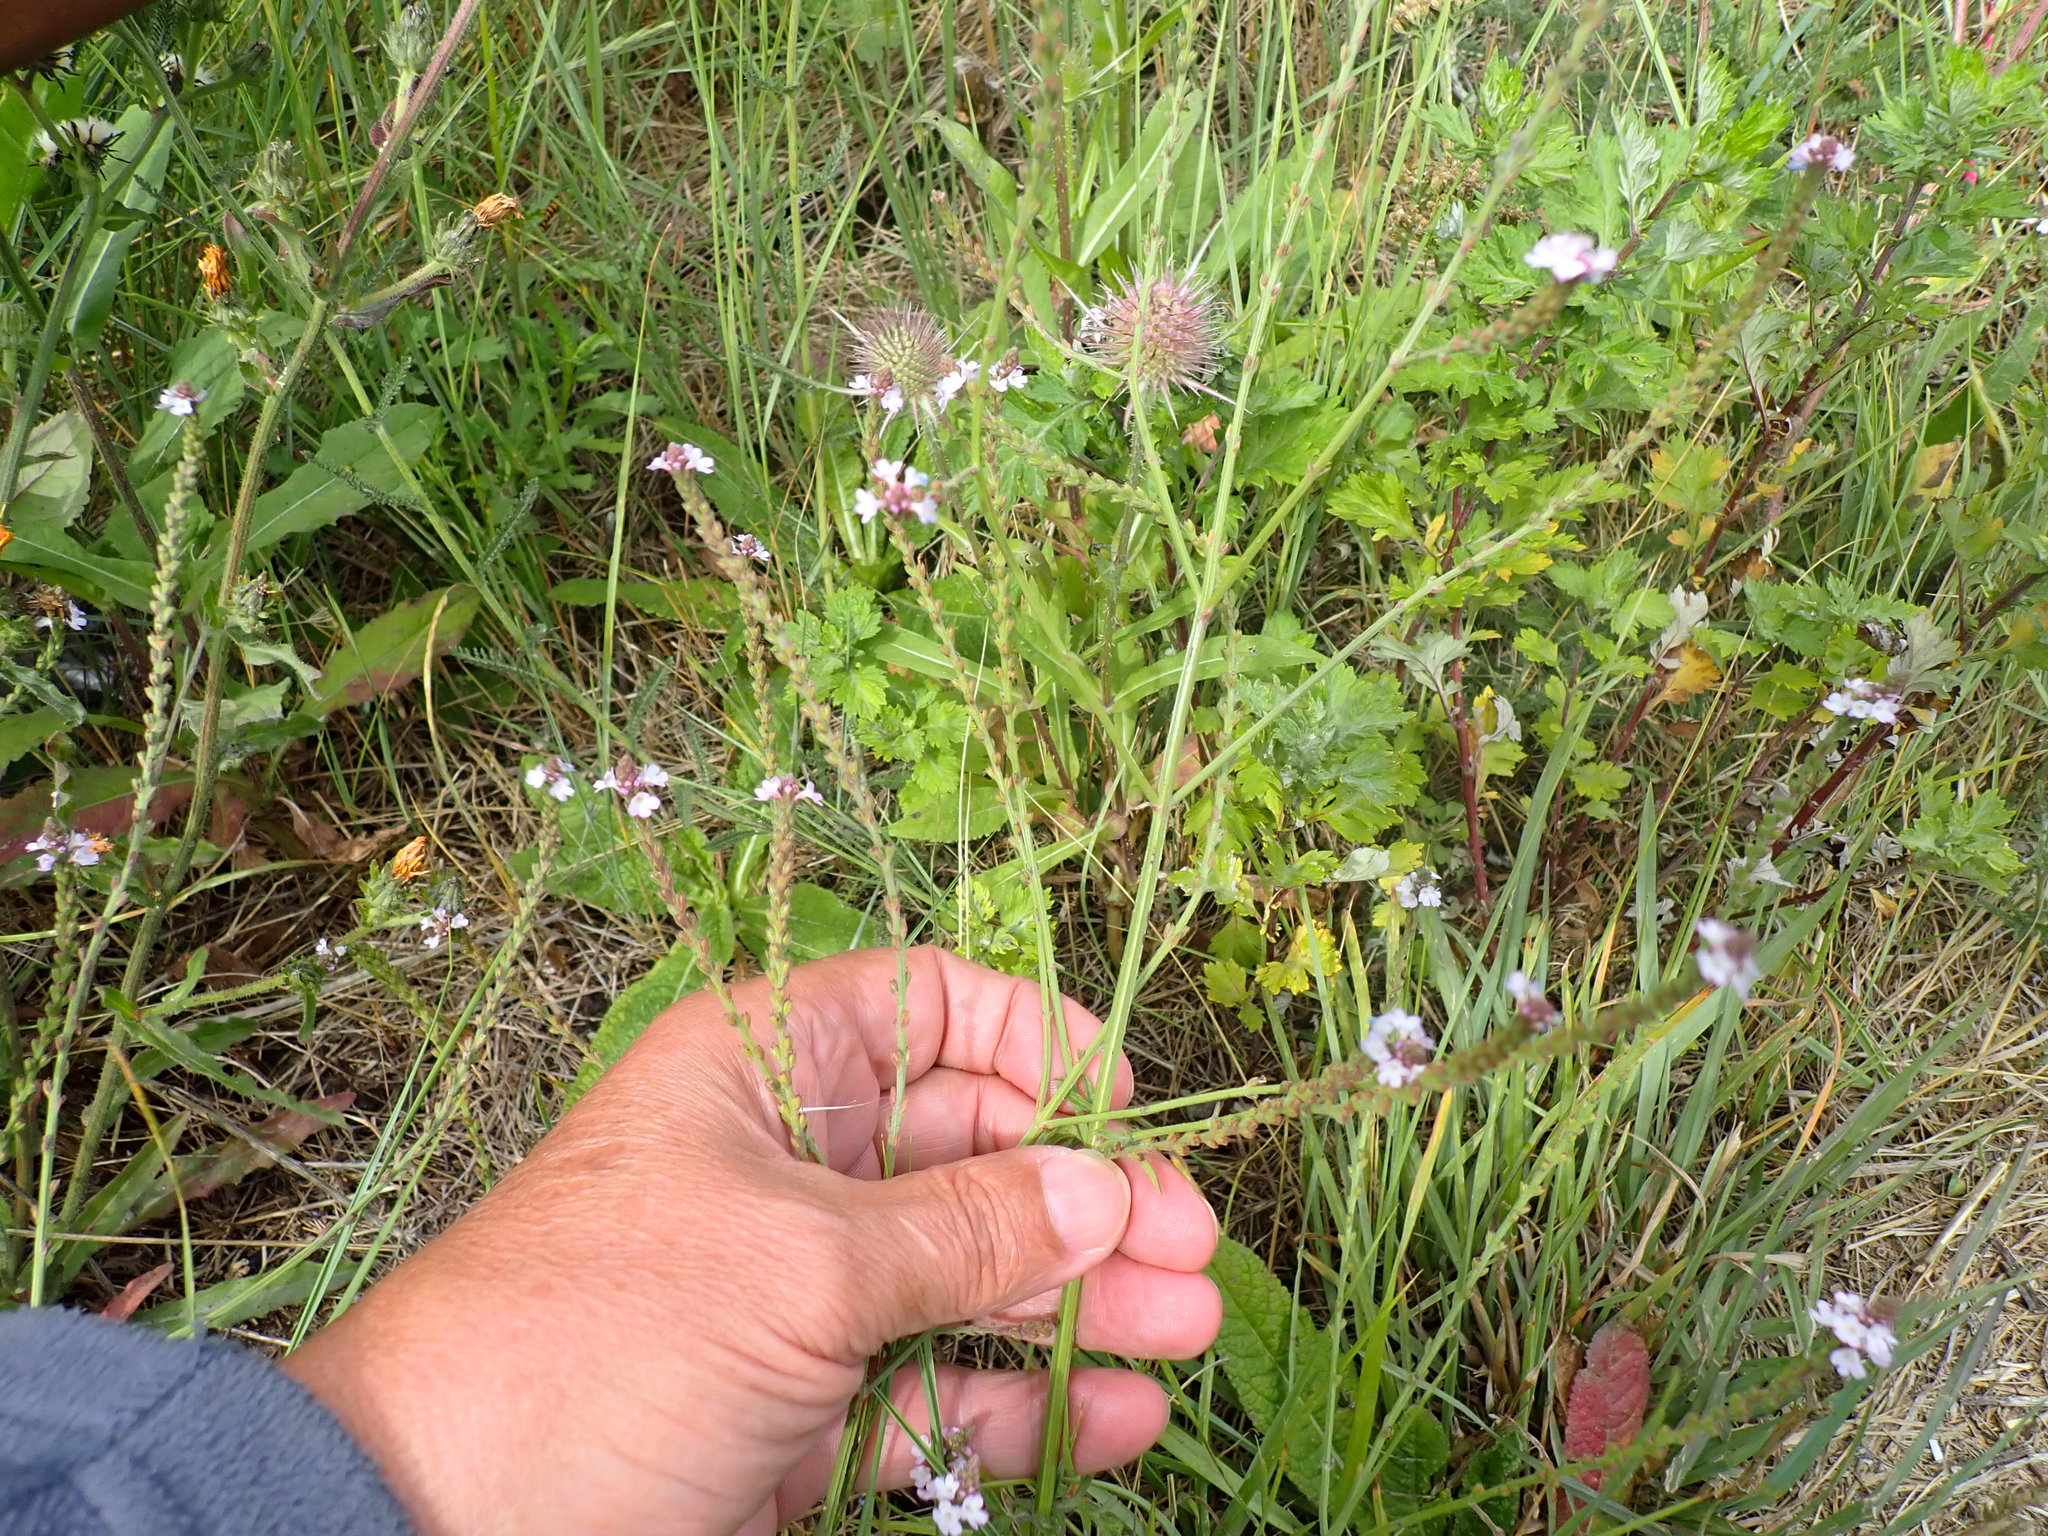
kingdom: Plantae
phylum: Tracheophyta
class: Magnoliopsida
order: Lamiales
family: Verbenaceae
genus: Verbena
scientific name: Verbena officinalis
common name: Vervain
